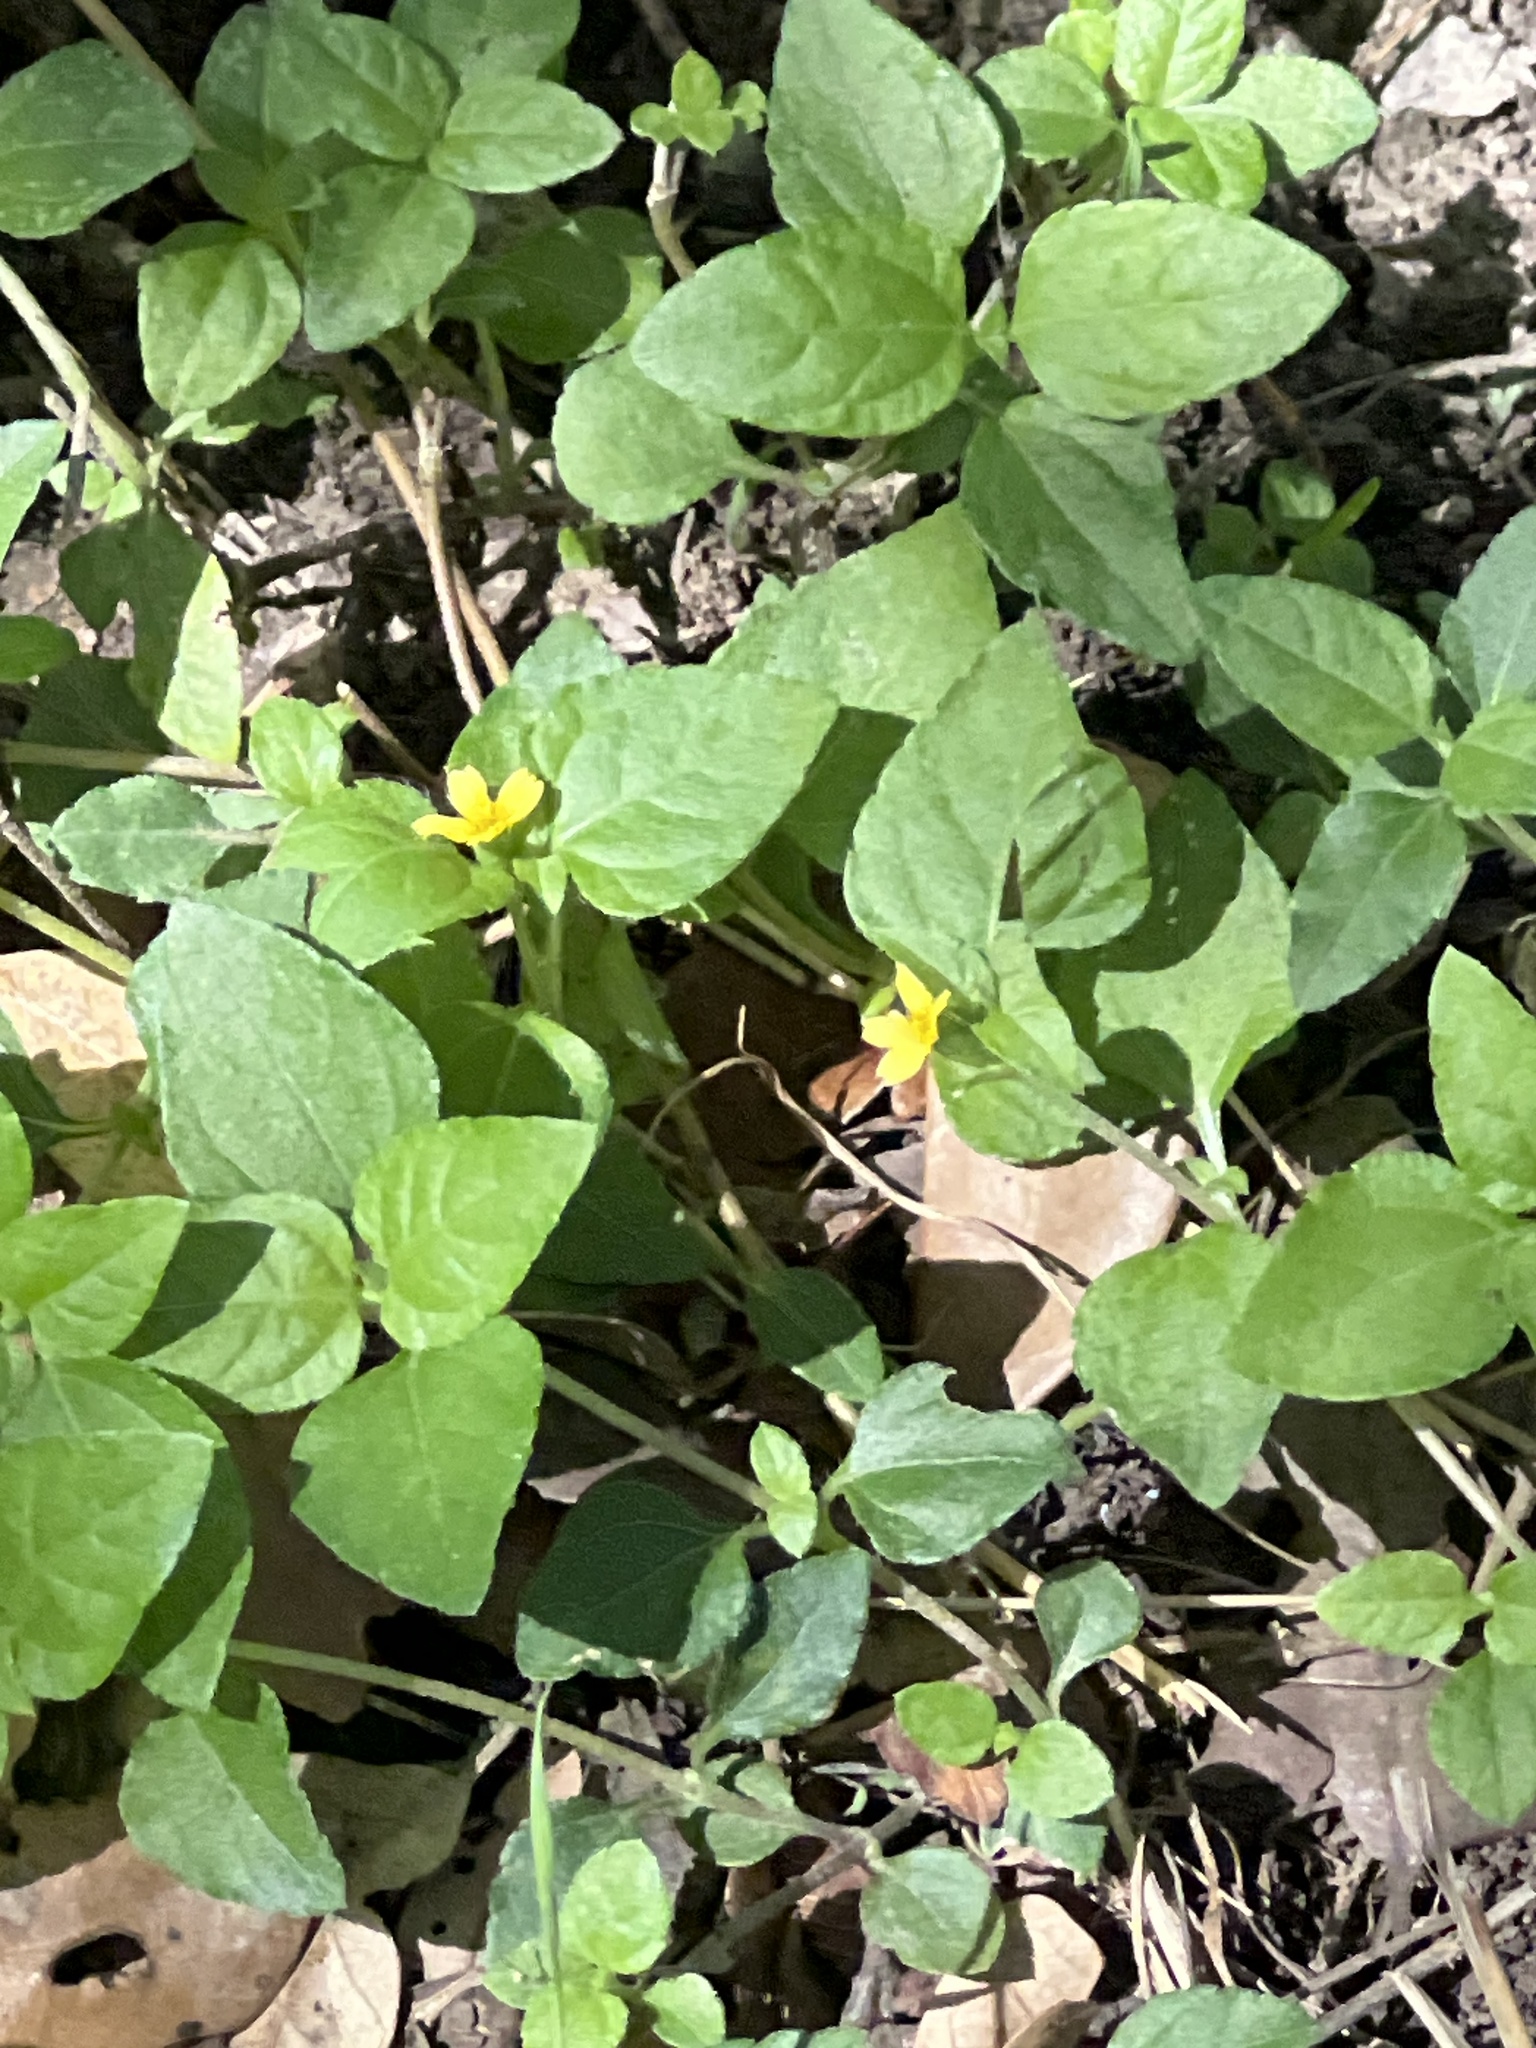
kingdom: Plantae
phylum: Tracheophyta
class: Magnoliopsida
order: Asterales
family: Asteraceae
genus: Calyptocarpus
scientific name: Calyptocarpus vialis
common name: Straggler daisy
